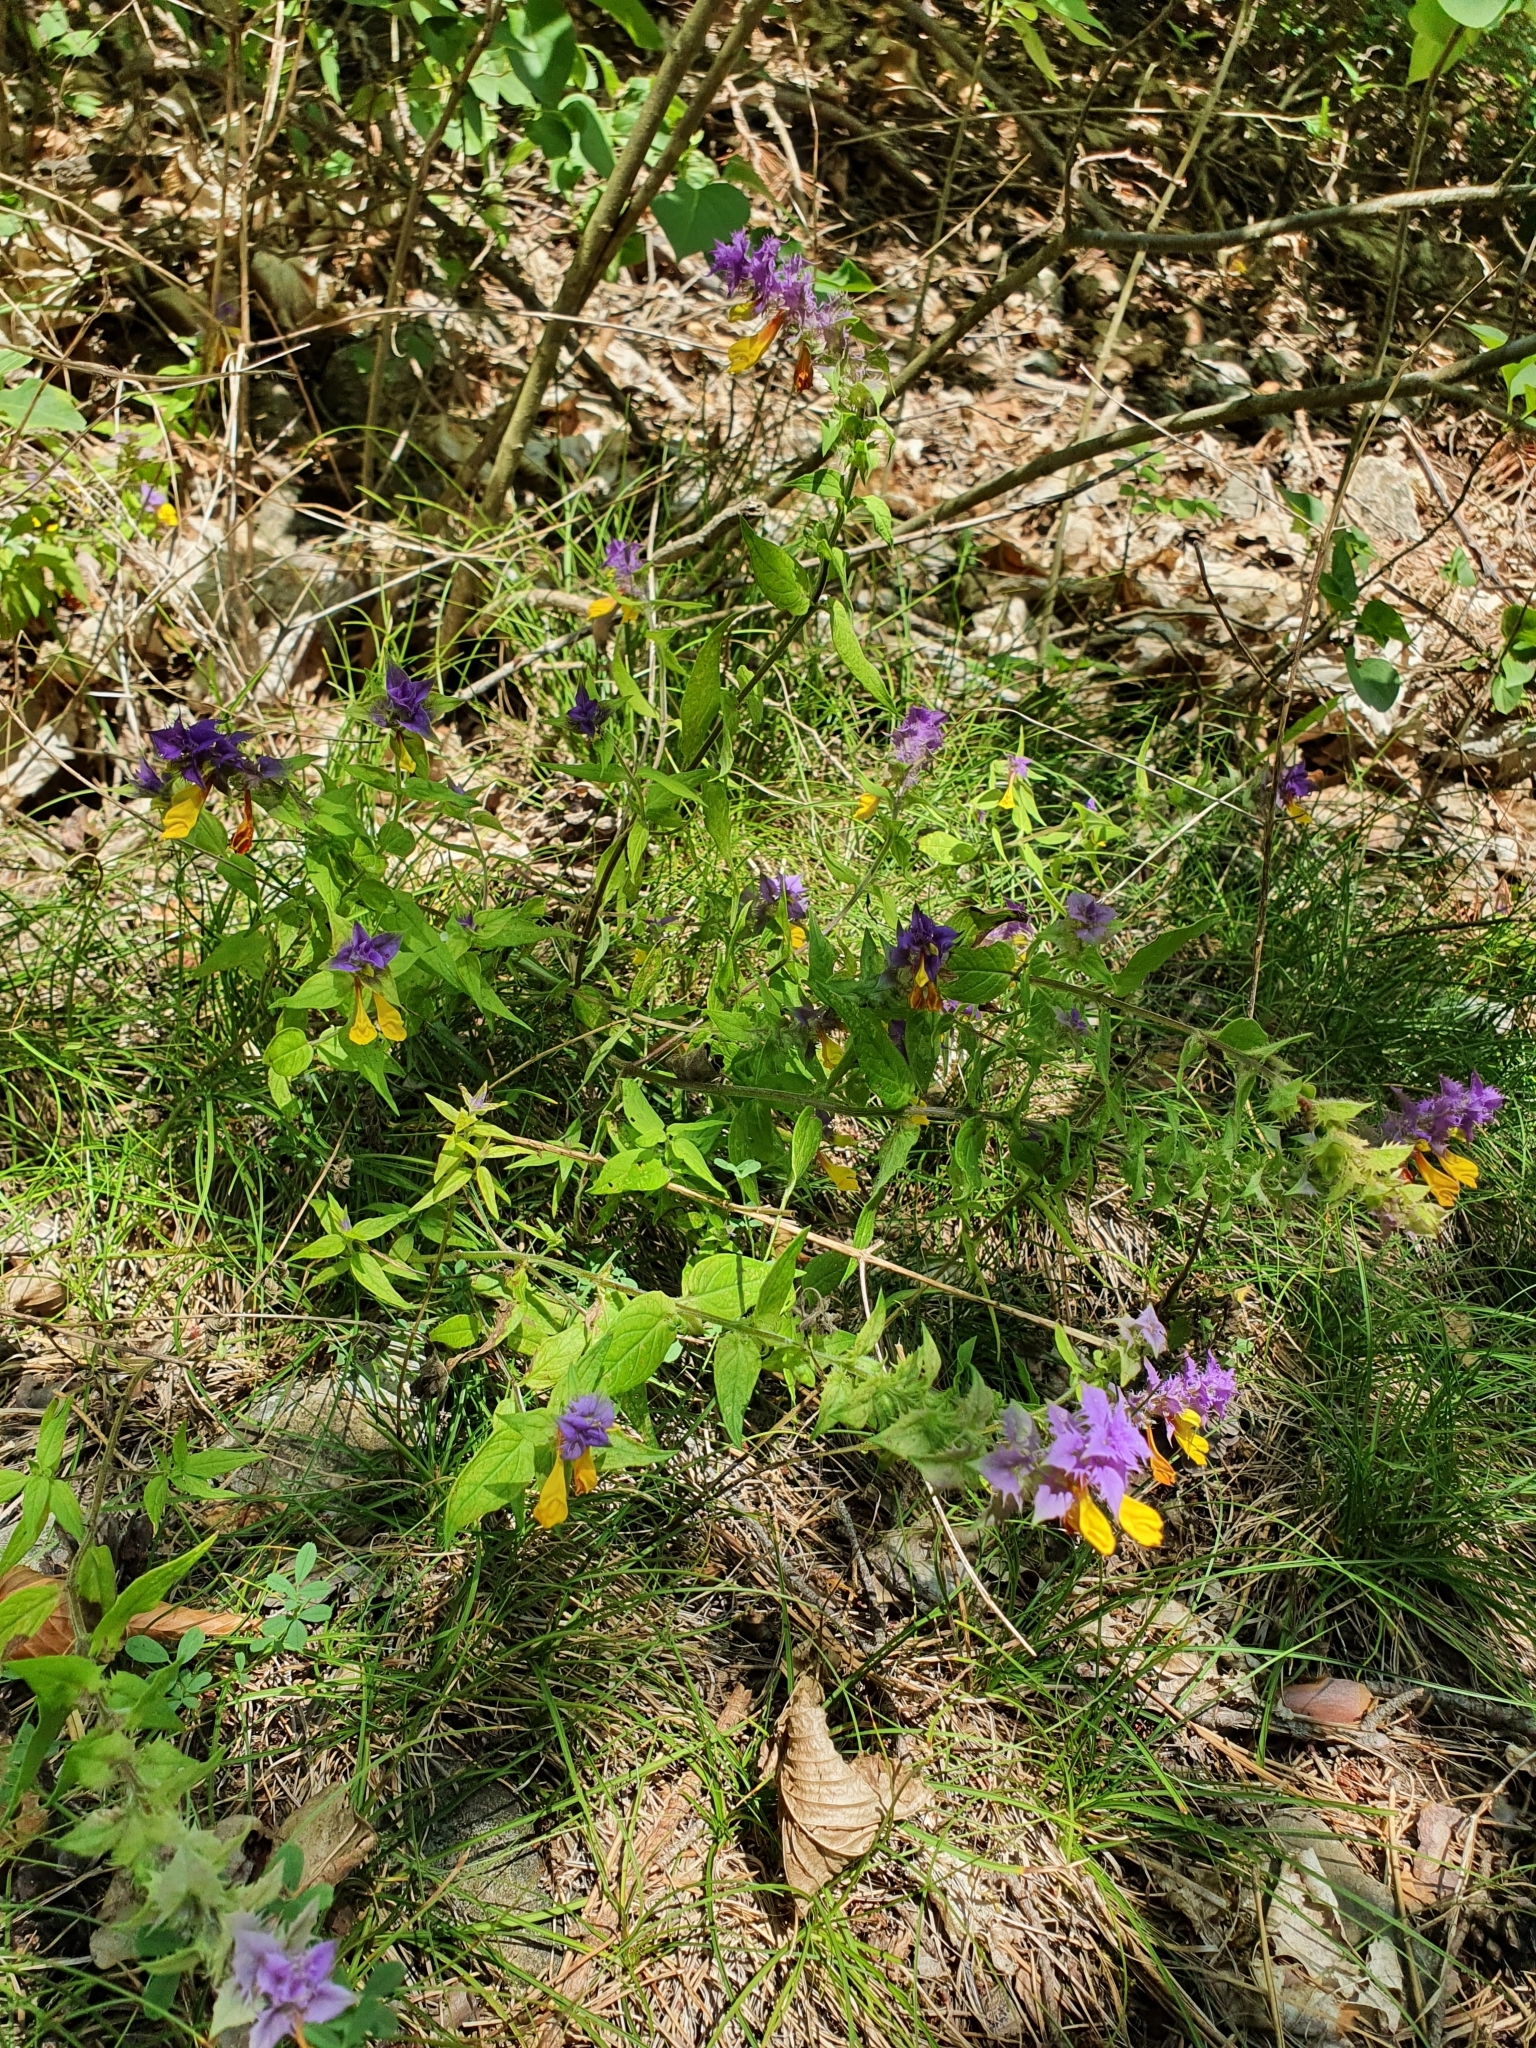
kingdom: Plantae
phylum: Tracheophyta
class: Magnoliopsida
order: Lamiales
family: Orobanchaceae
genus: Melampyrum
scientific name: Melampyrum nemorosum
